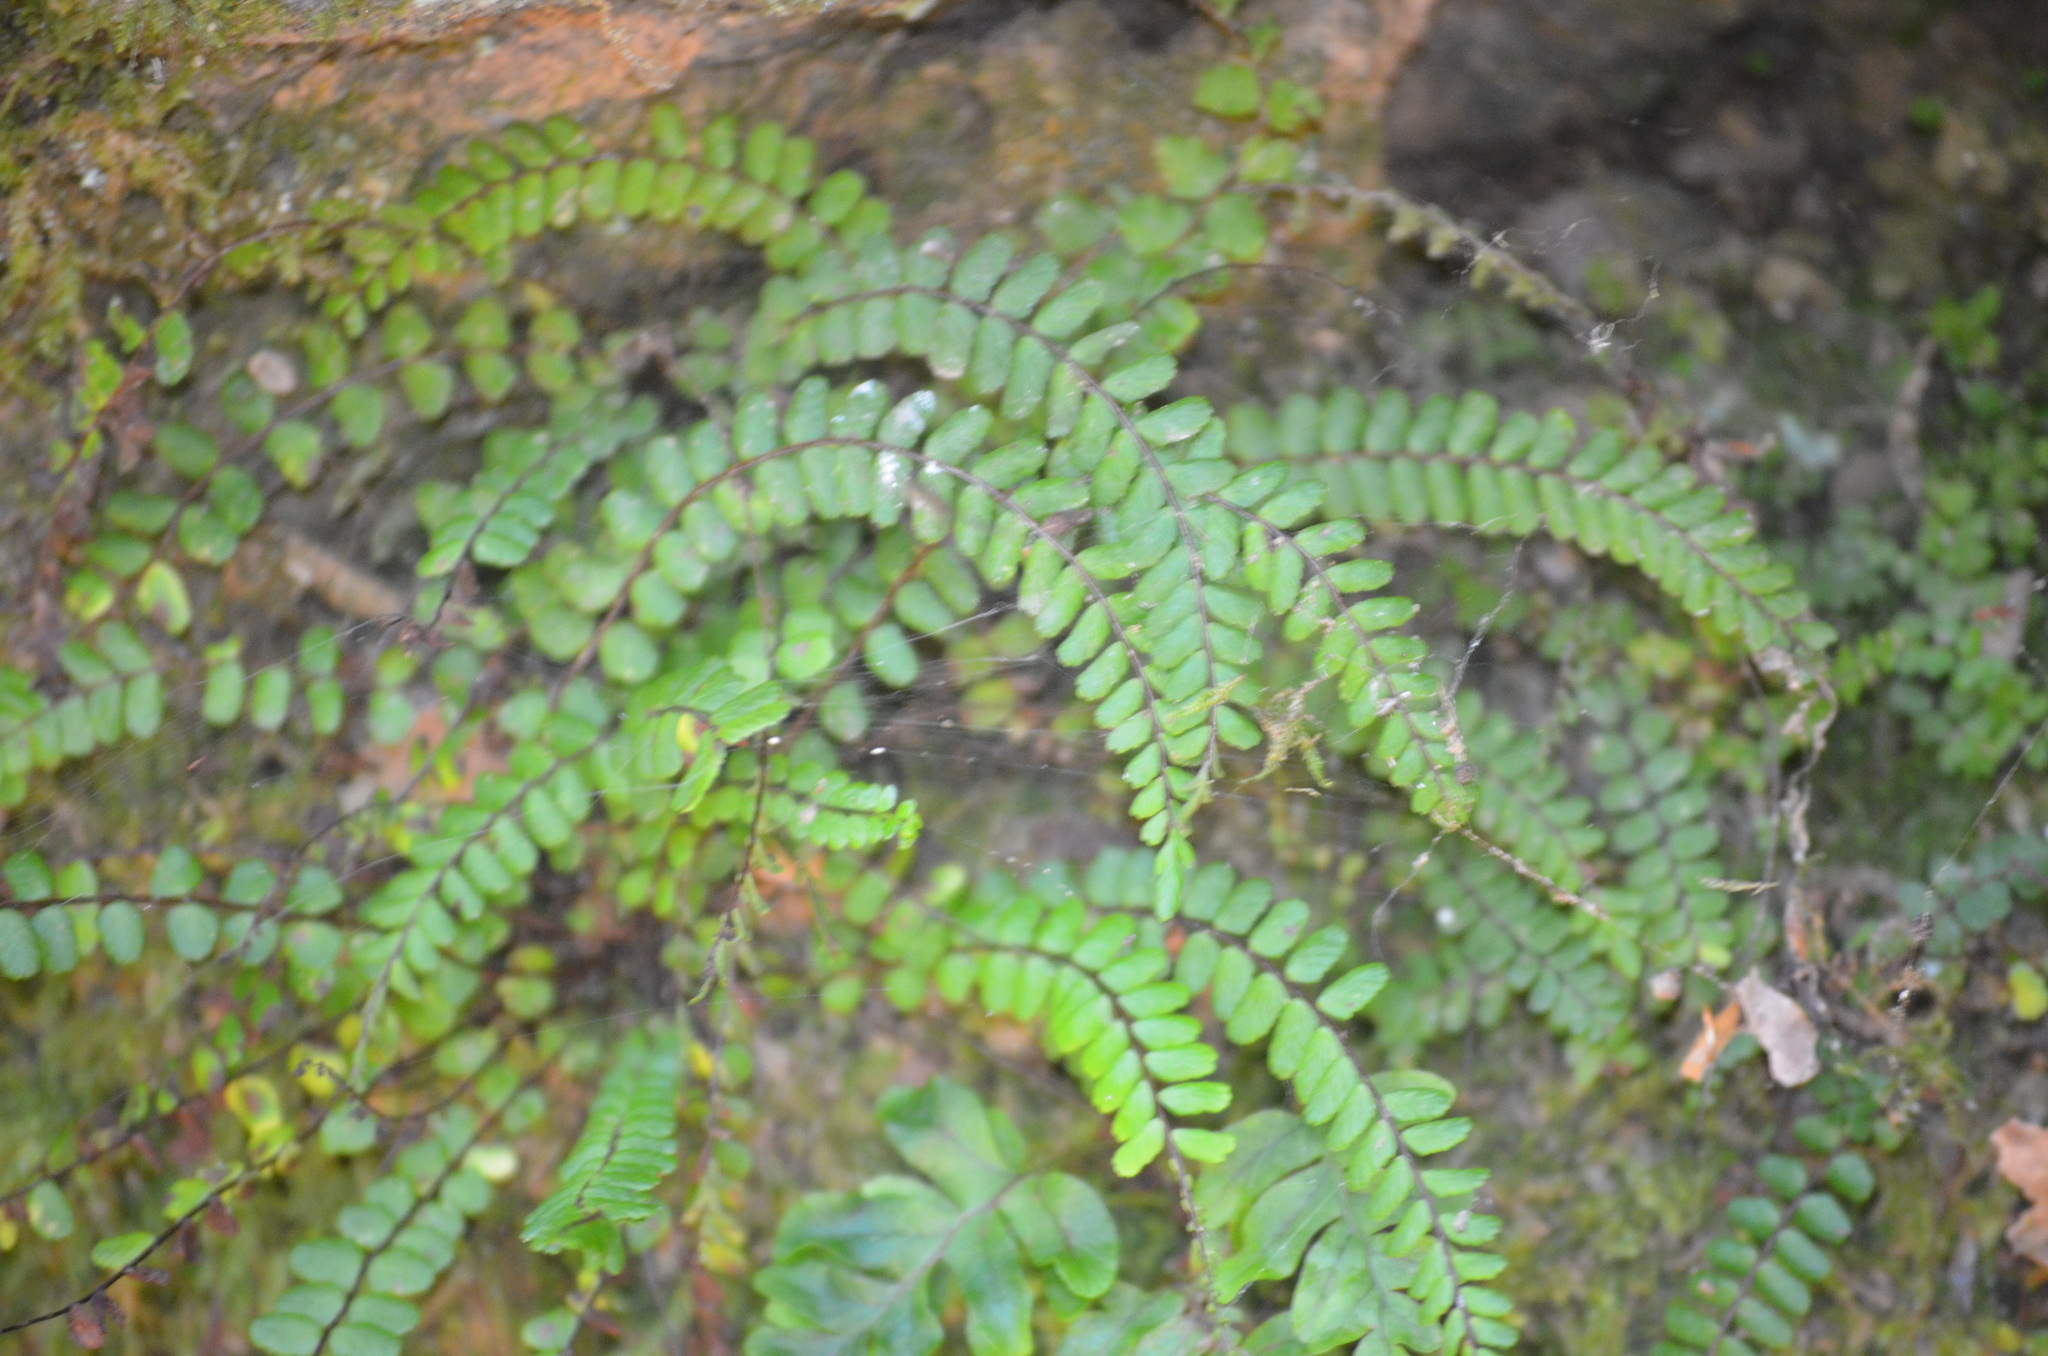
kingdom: Plantae
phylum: Tracheophyta
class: Polypodiopsida
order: Polypodiales
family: Aspleniaceae
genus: Asplenium
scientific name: Asplenium trichomanes
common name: Maidenhair spleenwort
